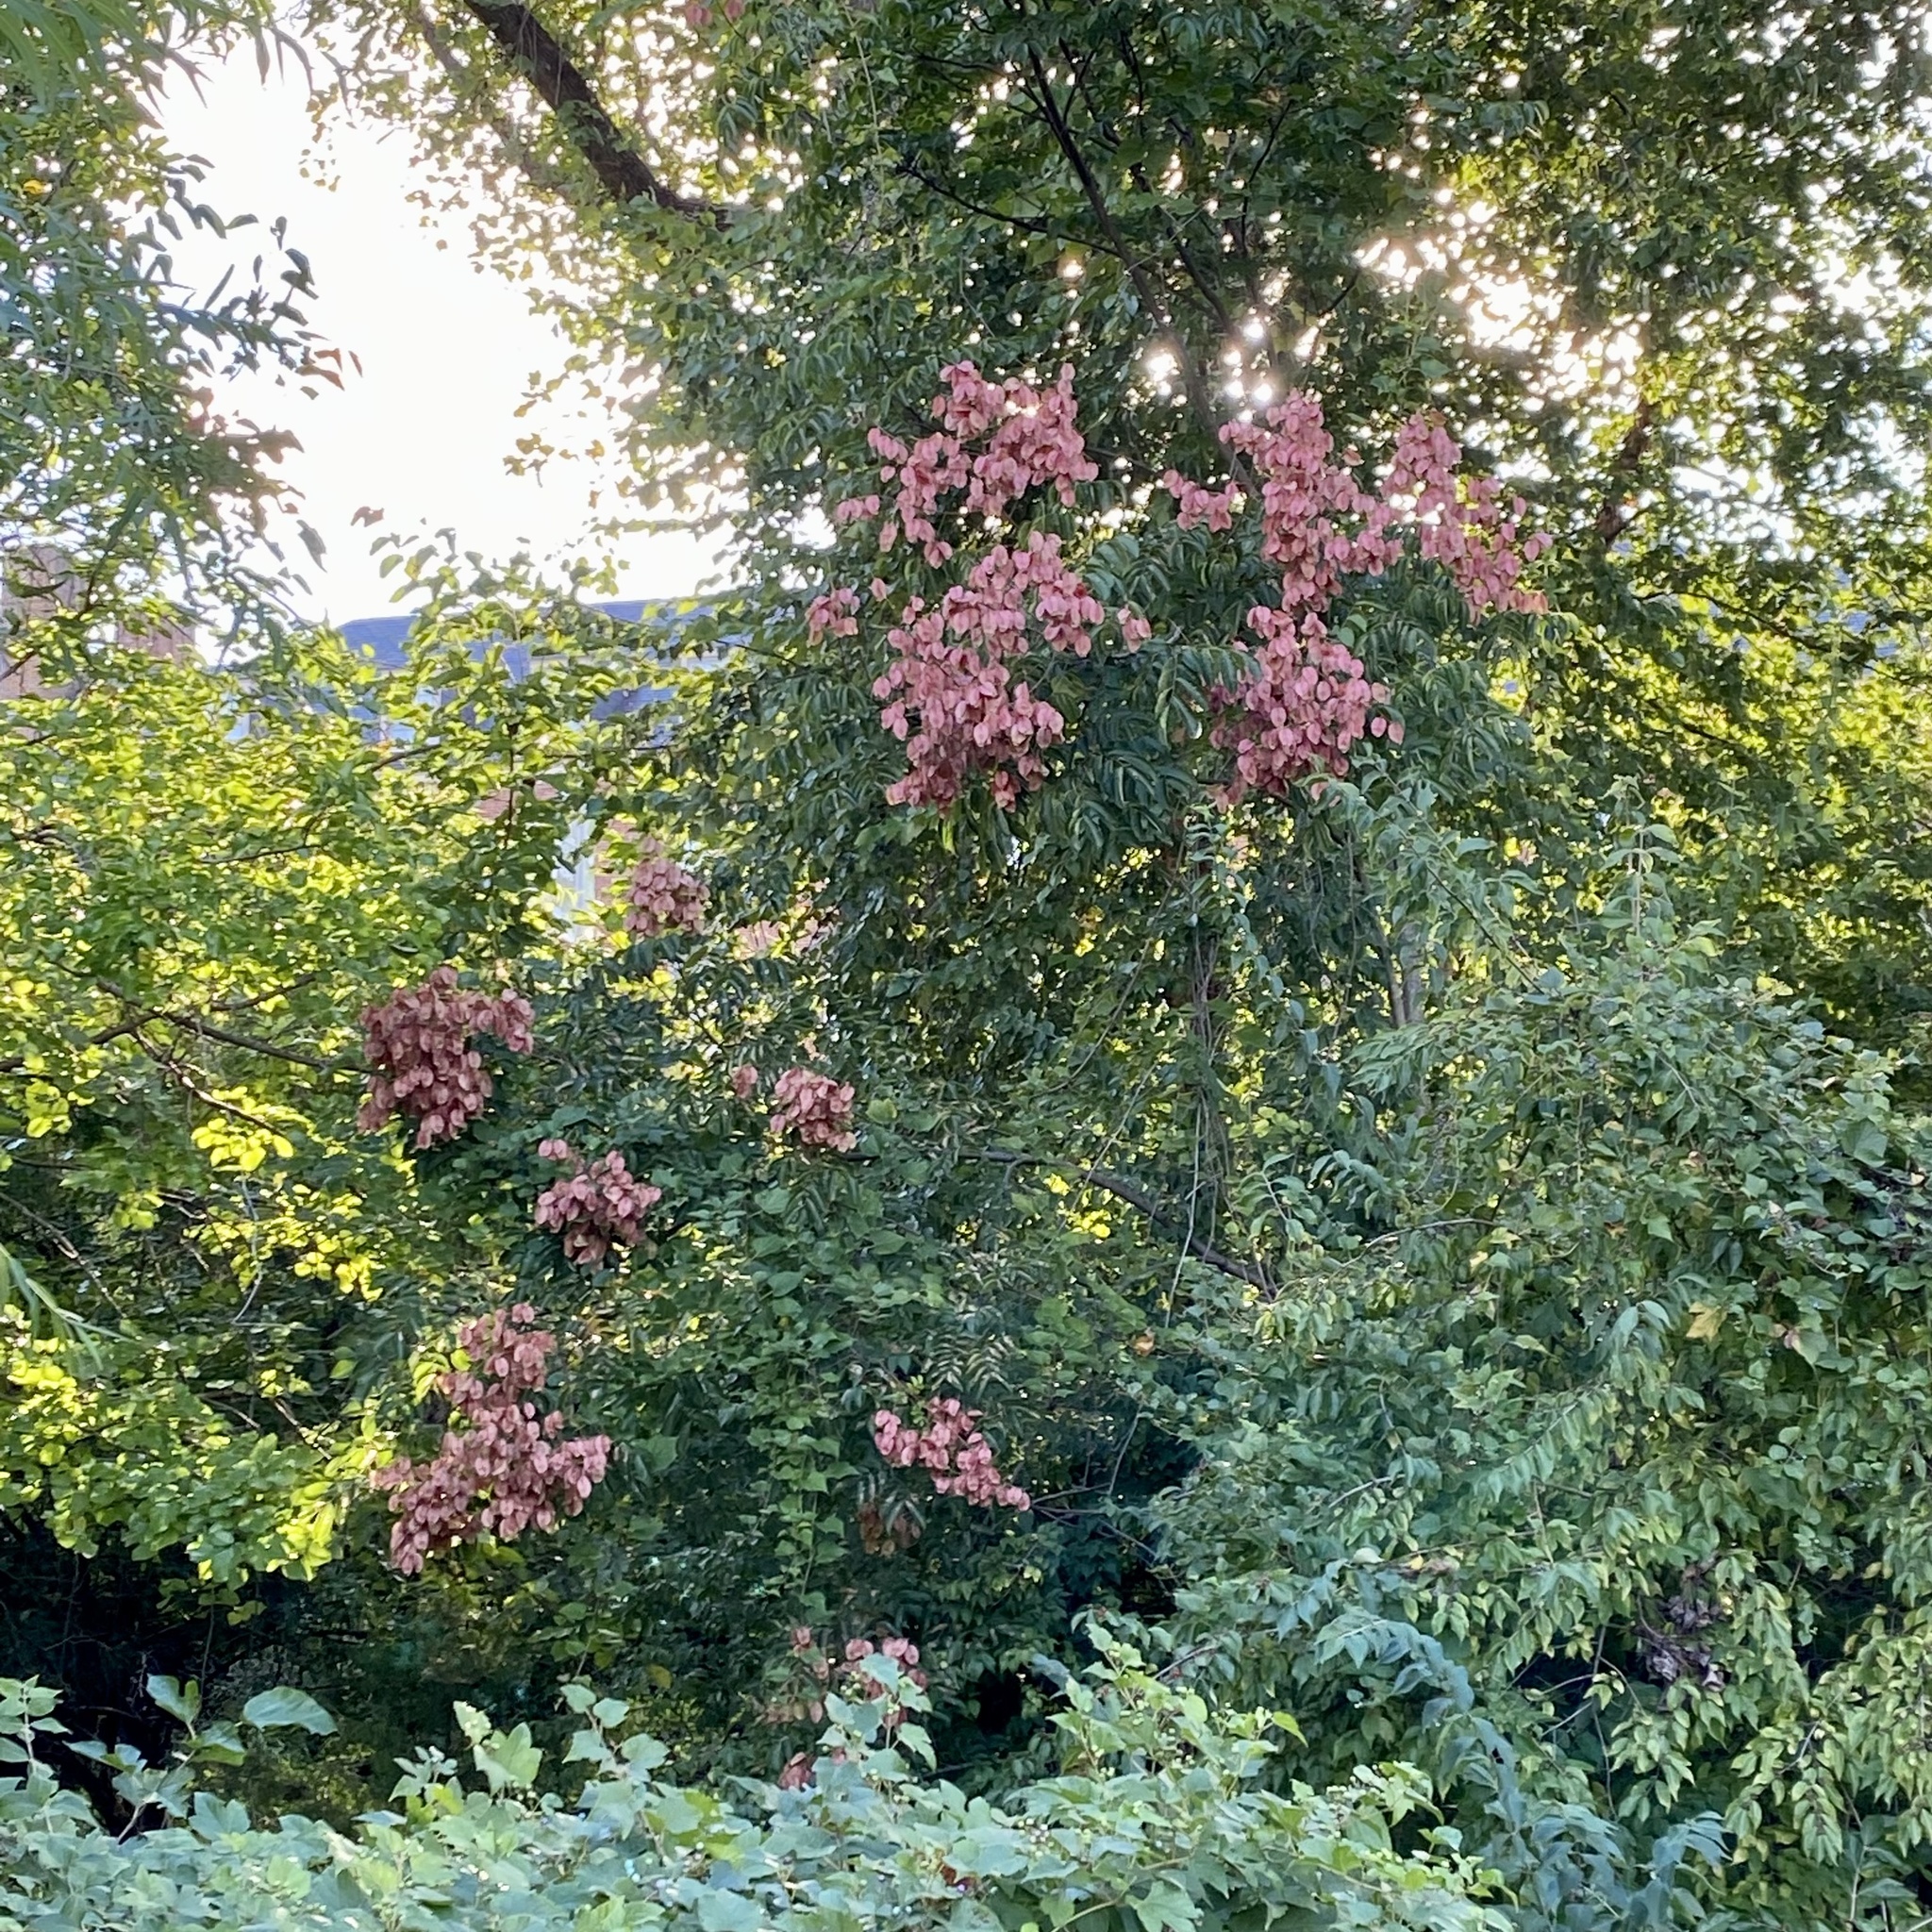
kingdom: Plantae
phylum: Tracheophyta
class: Magnoliopsida
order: Sapindales
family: Sapindaceae
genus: Koelreuteria
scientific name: Koelreuteria paniculata
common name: Pride-of-india
